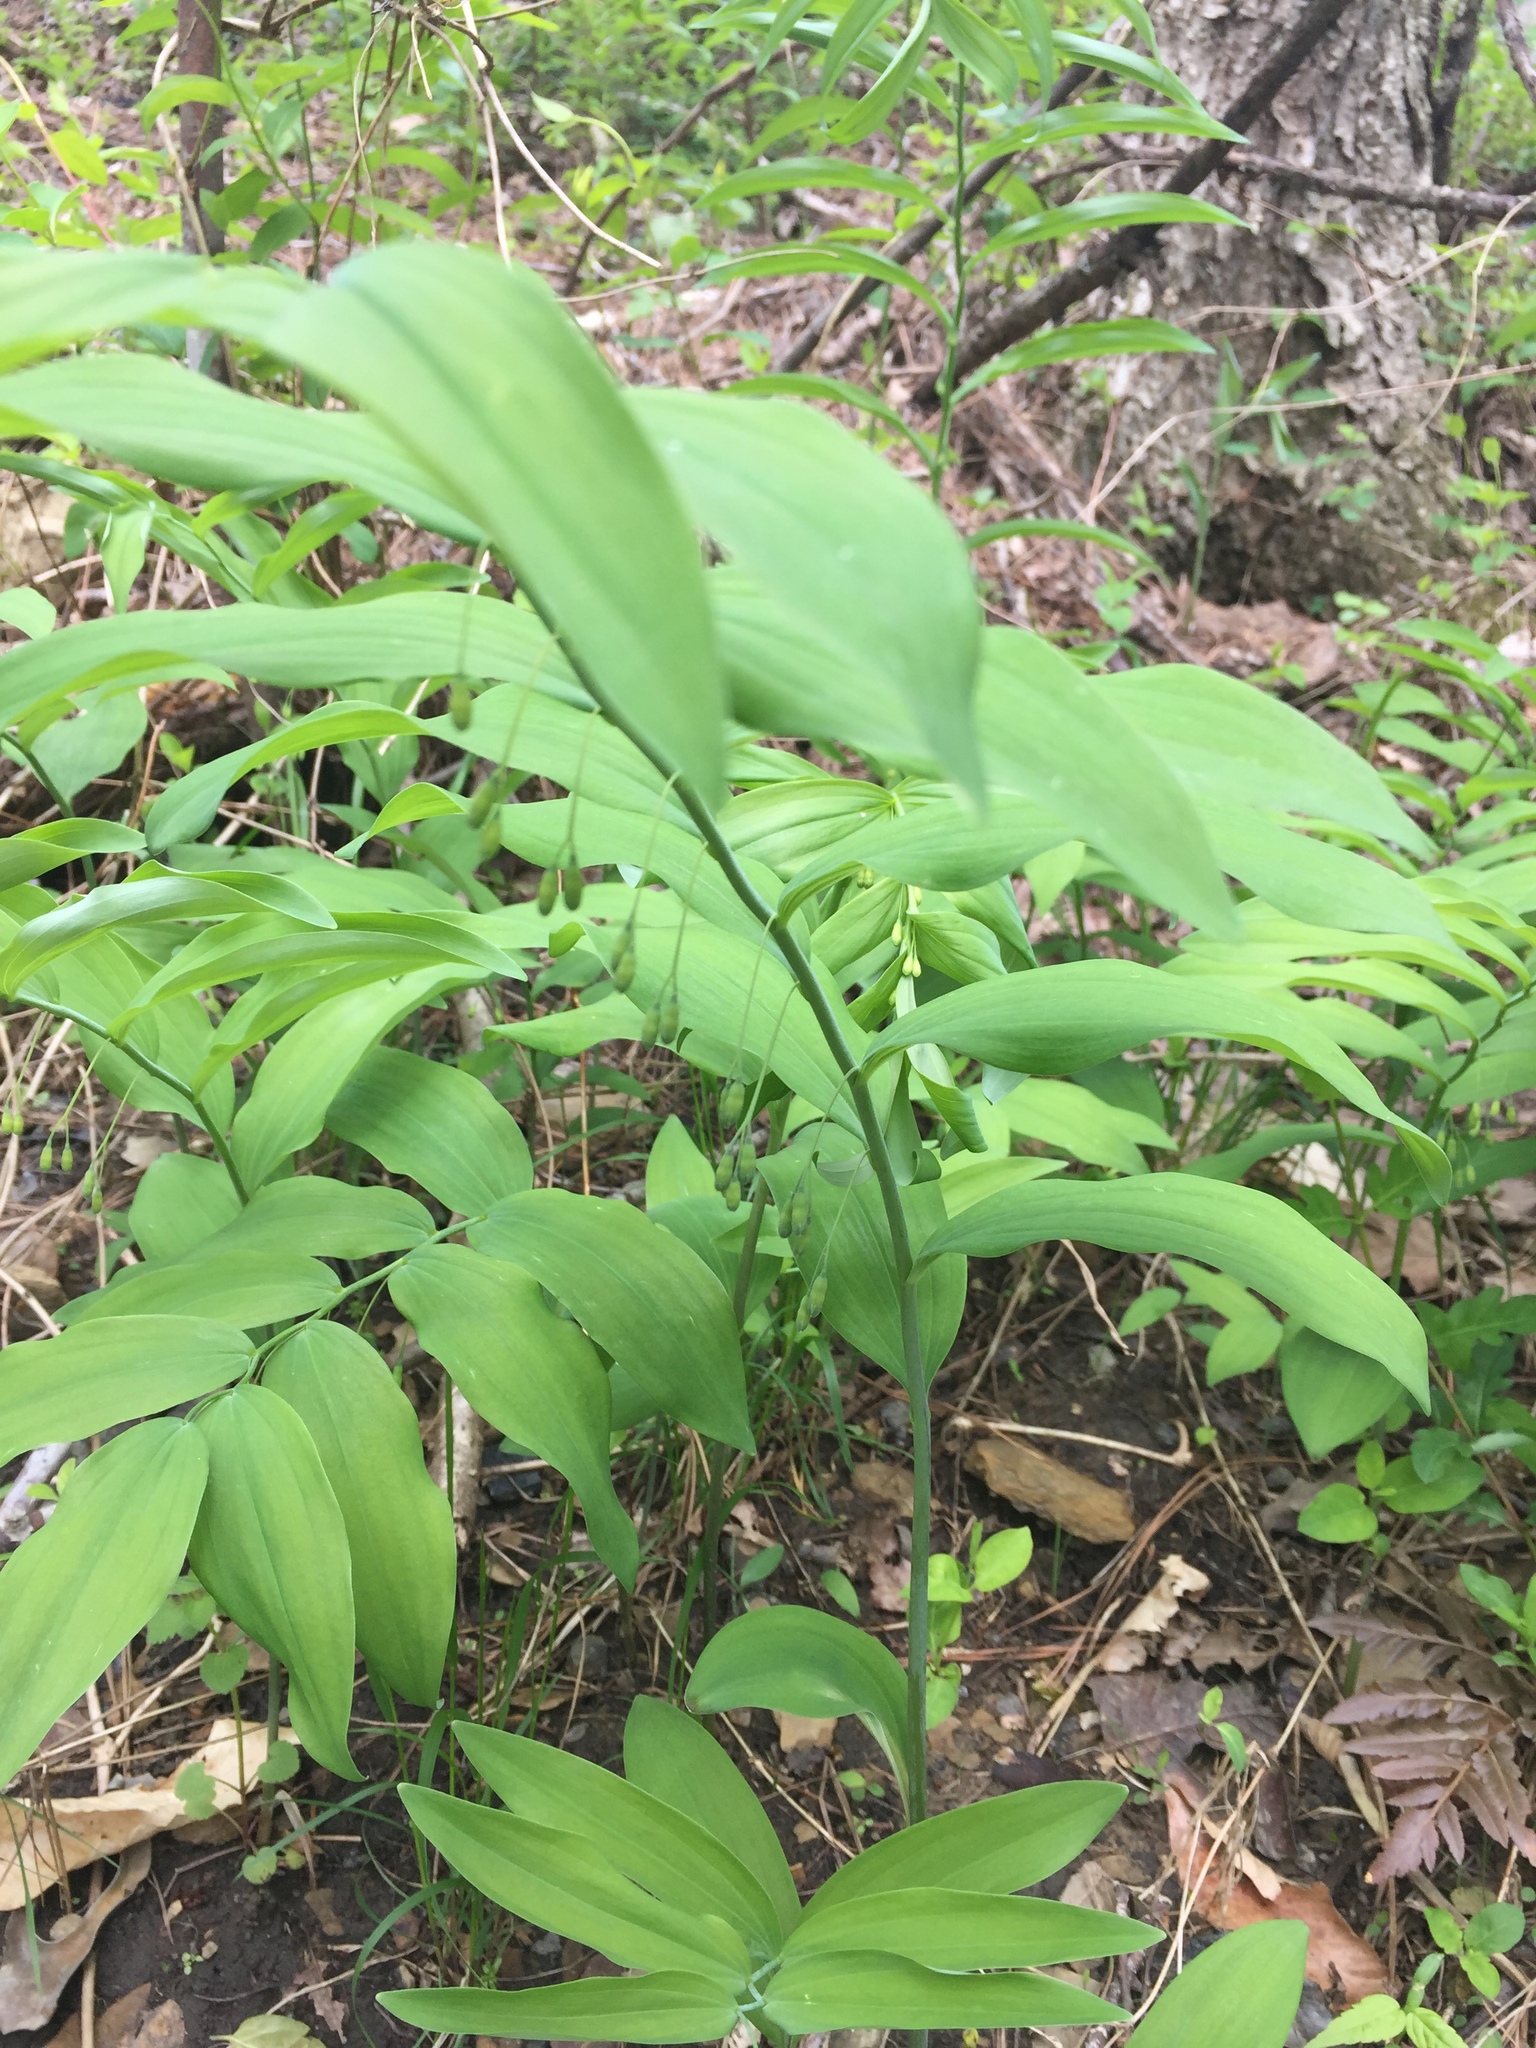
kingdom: Plantae
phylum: Tracheophyta
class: Liliopsida
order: Asparagales
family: Asparagaceae
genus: Polygonatum
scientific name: Polygonatum biflorum
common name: American solomon's-seal
